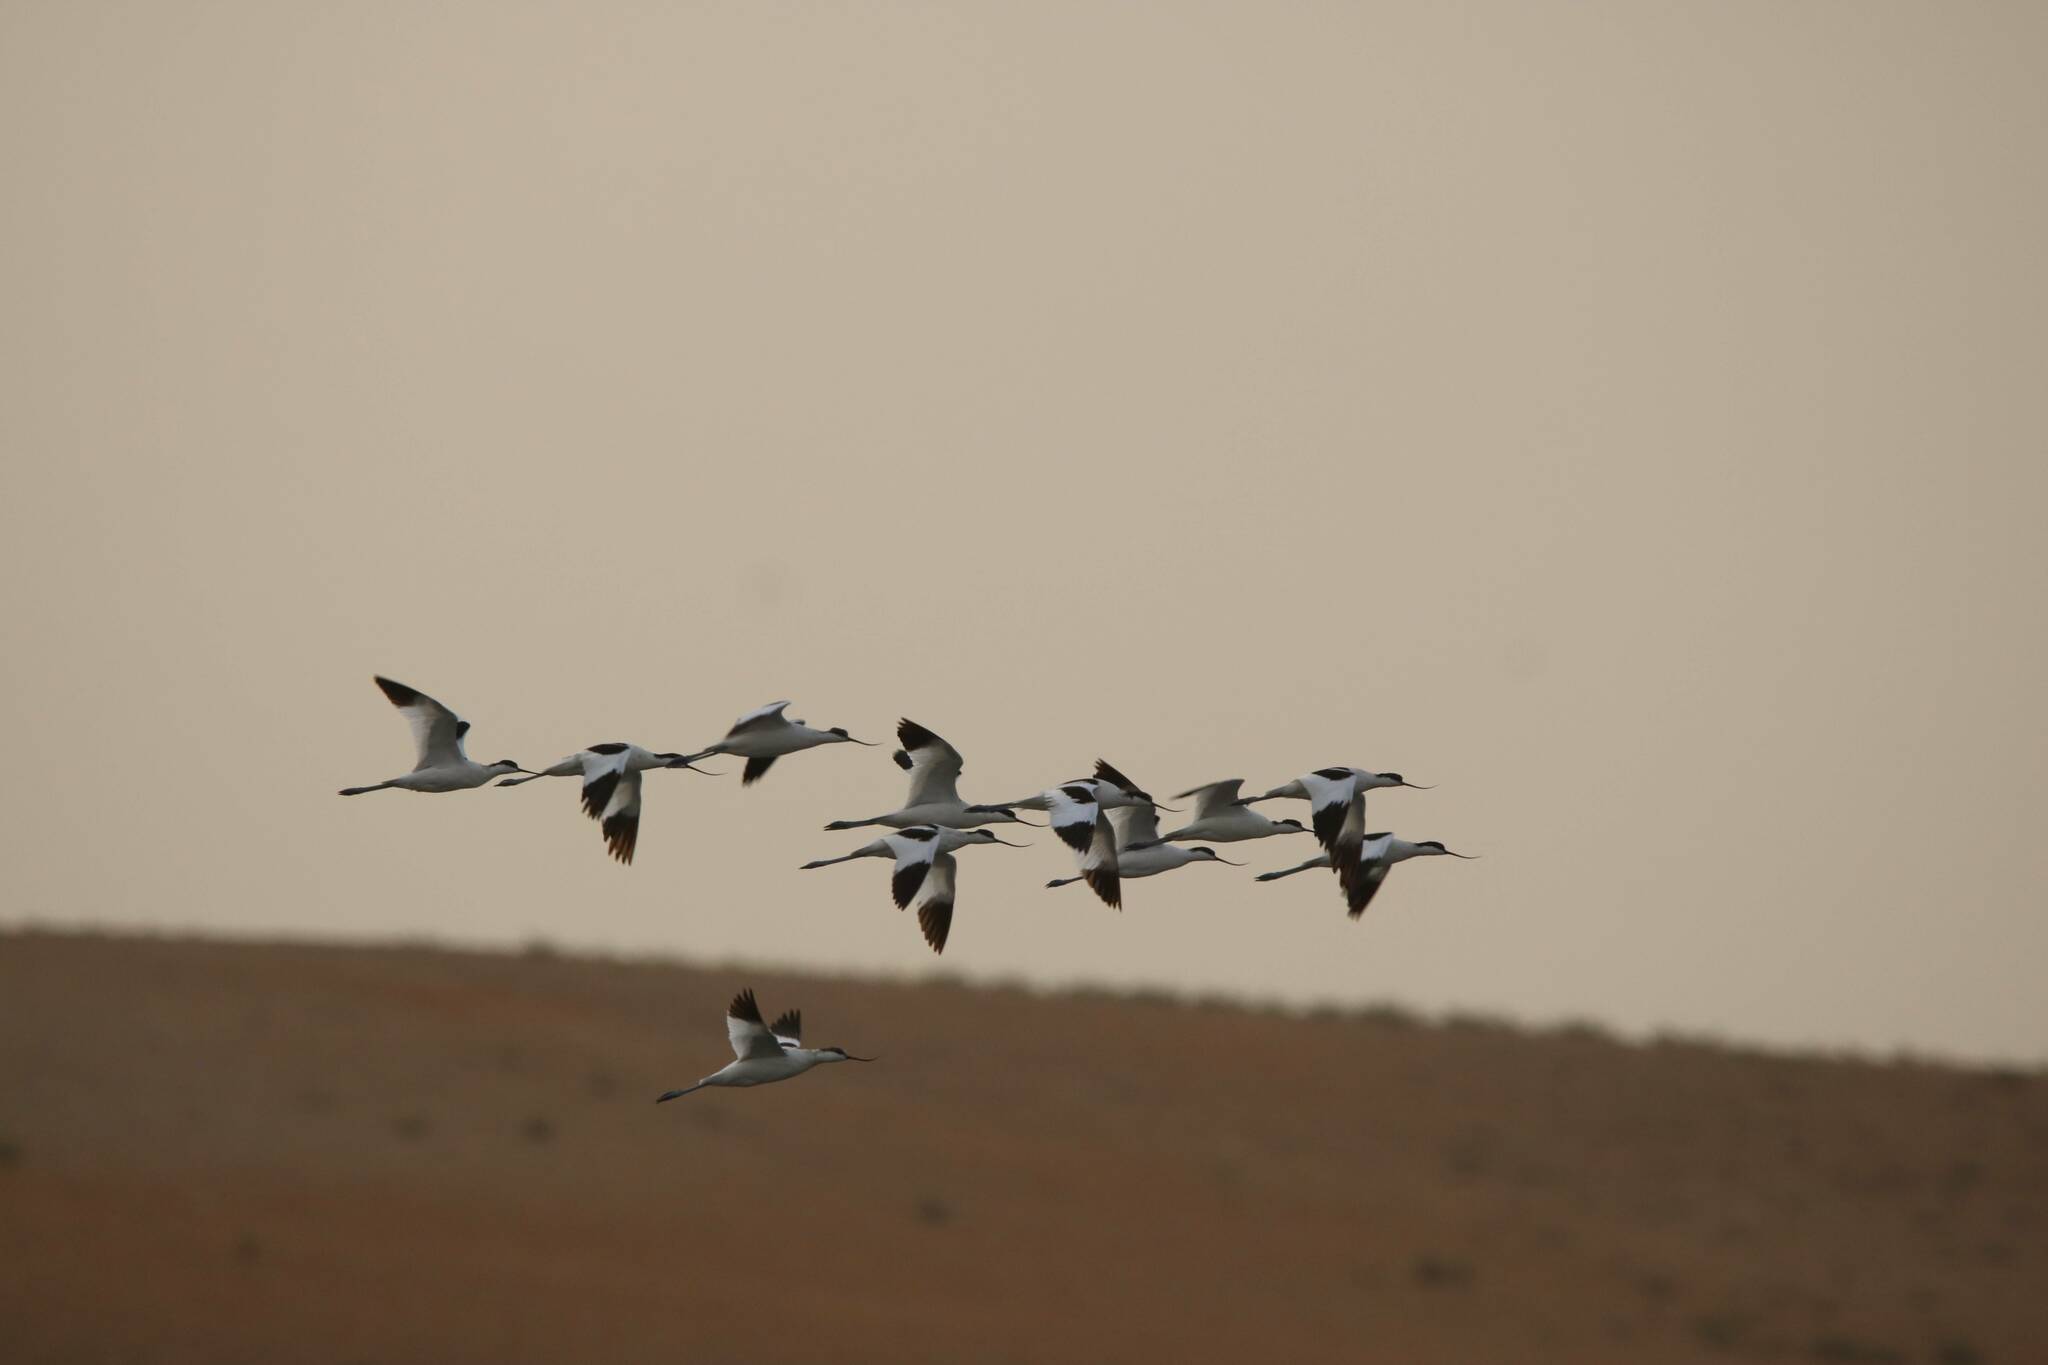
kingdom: Animalia
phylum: Chordata
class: Aves
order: Charadriiformes
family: Recurvirostridae
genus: Recurvirostra
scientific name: Recurvirostra avosetta
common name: Pied avocet
